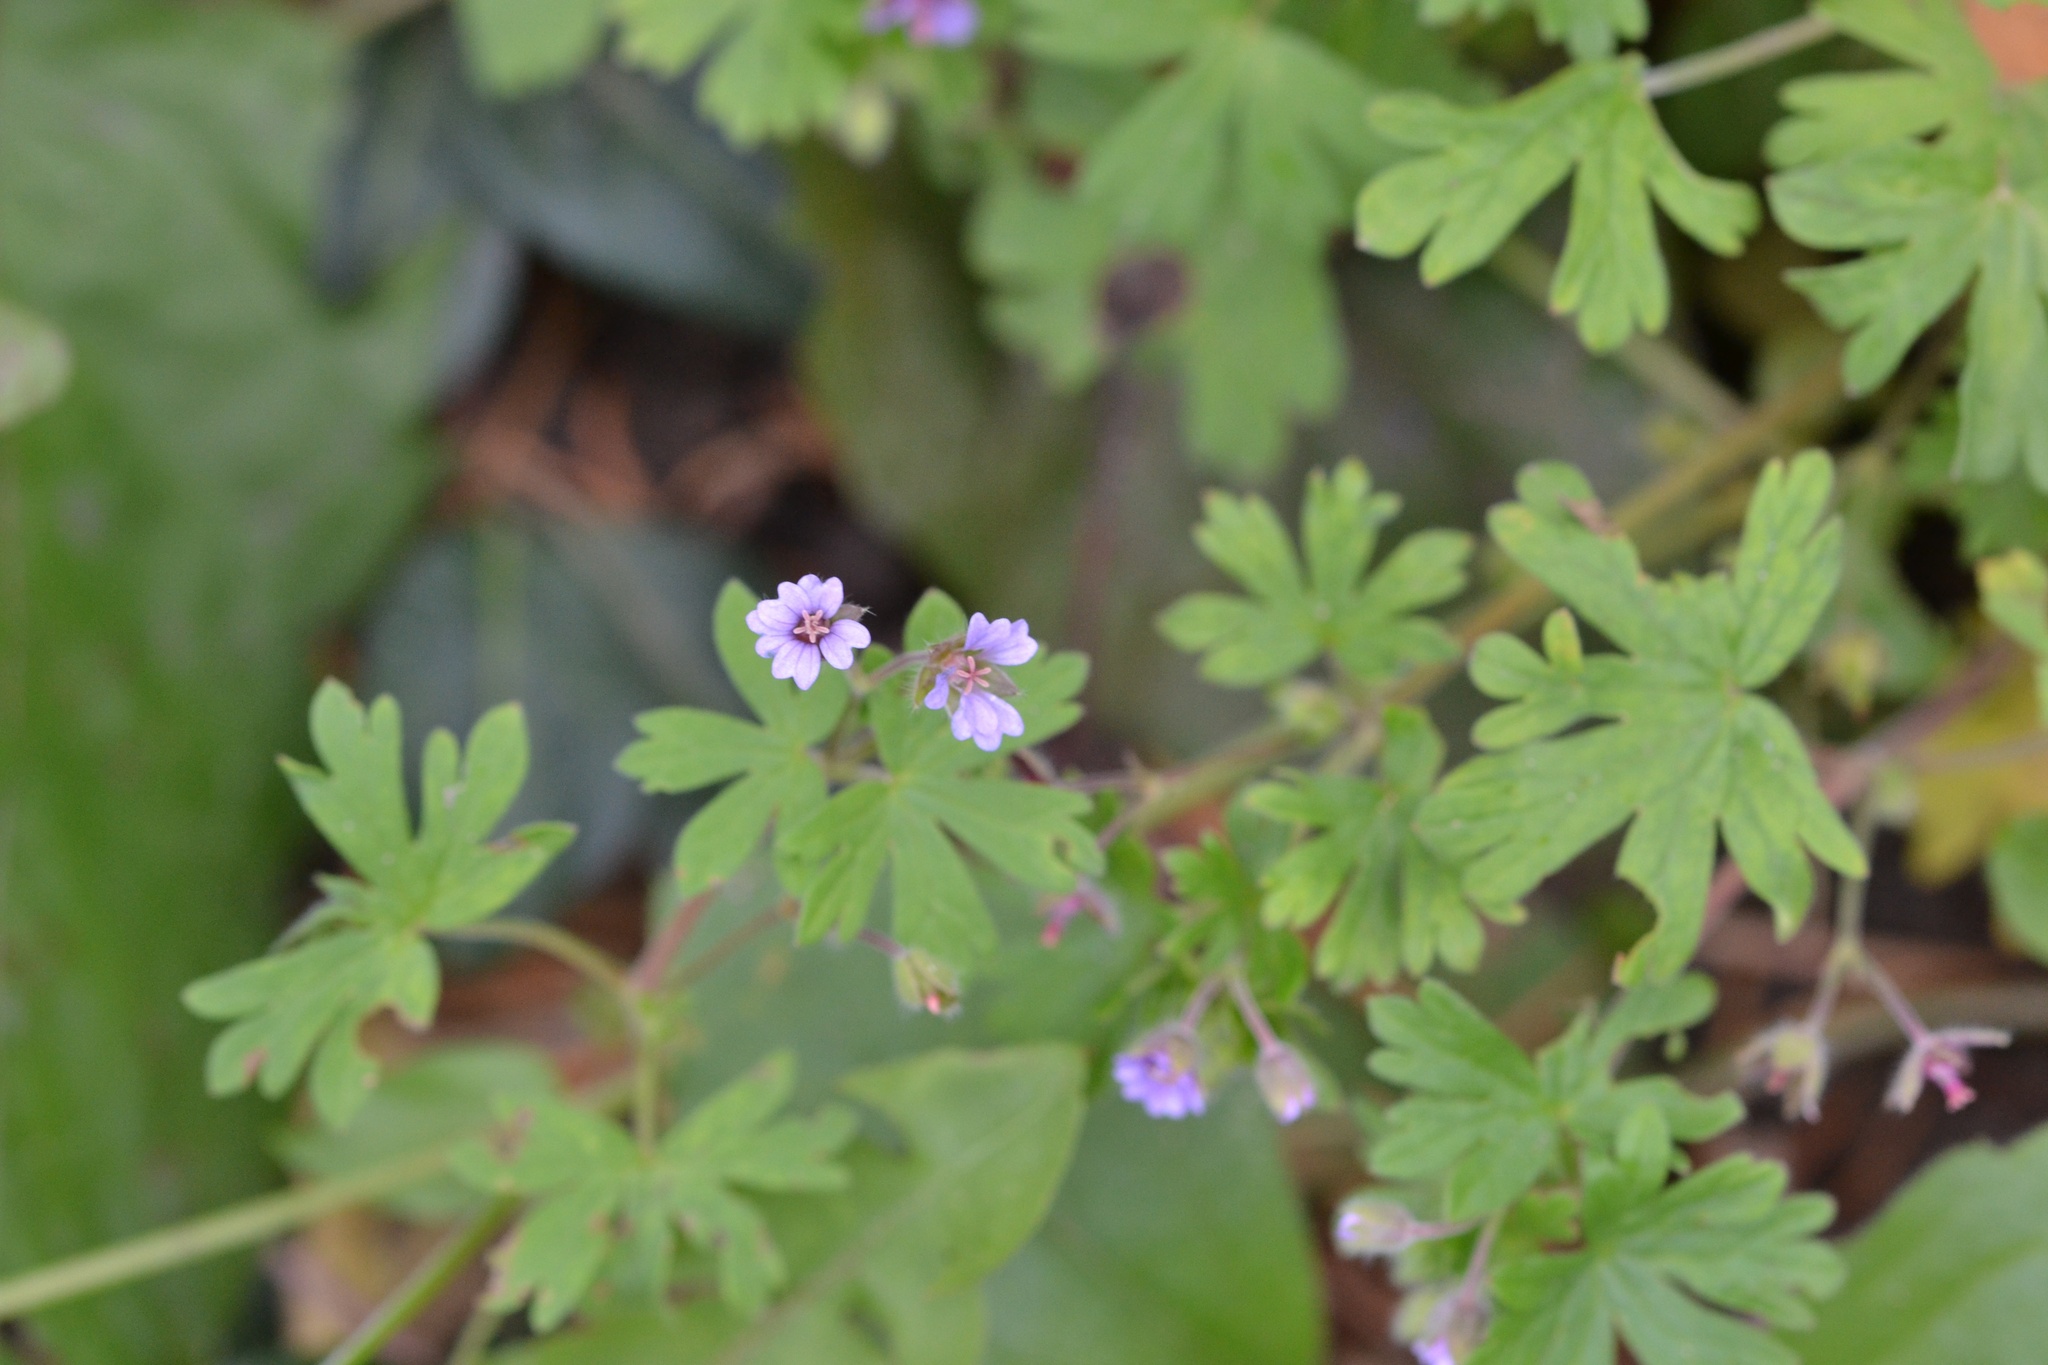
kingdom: Plantae
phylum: Tracheophyta
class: Magnoliopsida
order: Geraniales
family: Geraniaceae
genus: Geranium
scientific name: Geranium pusillum
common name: Small geranium
